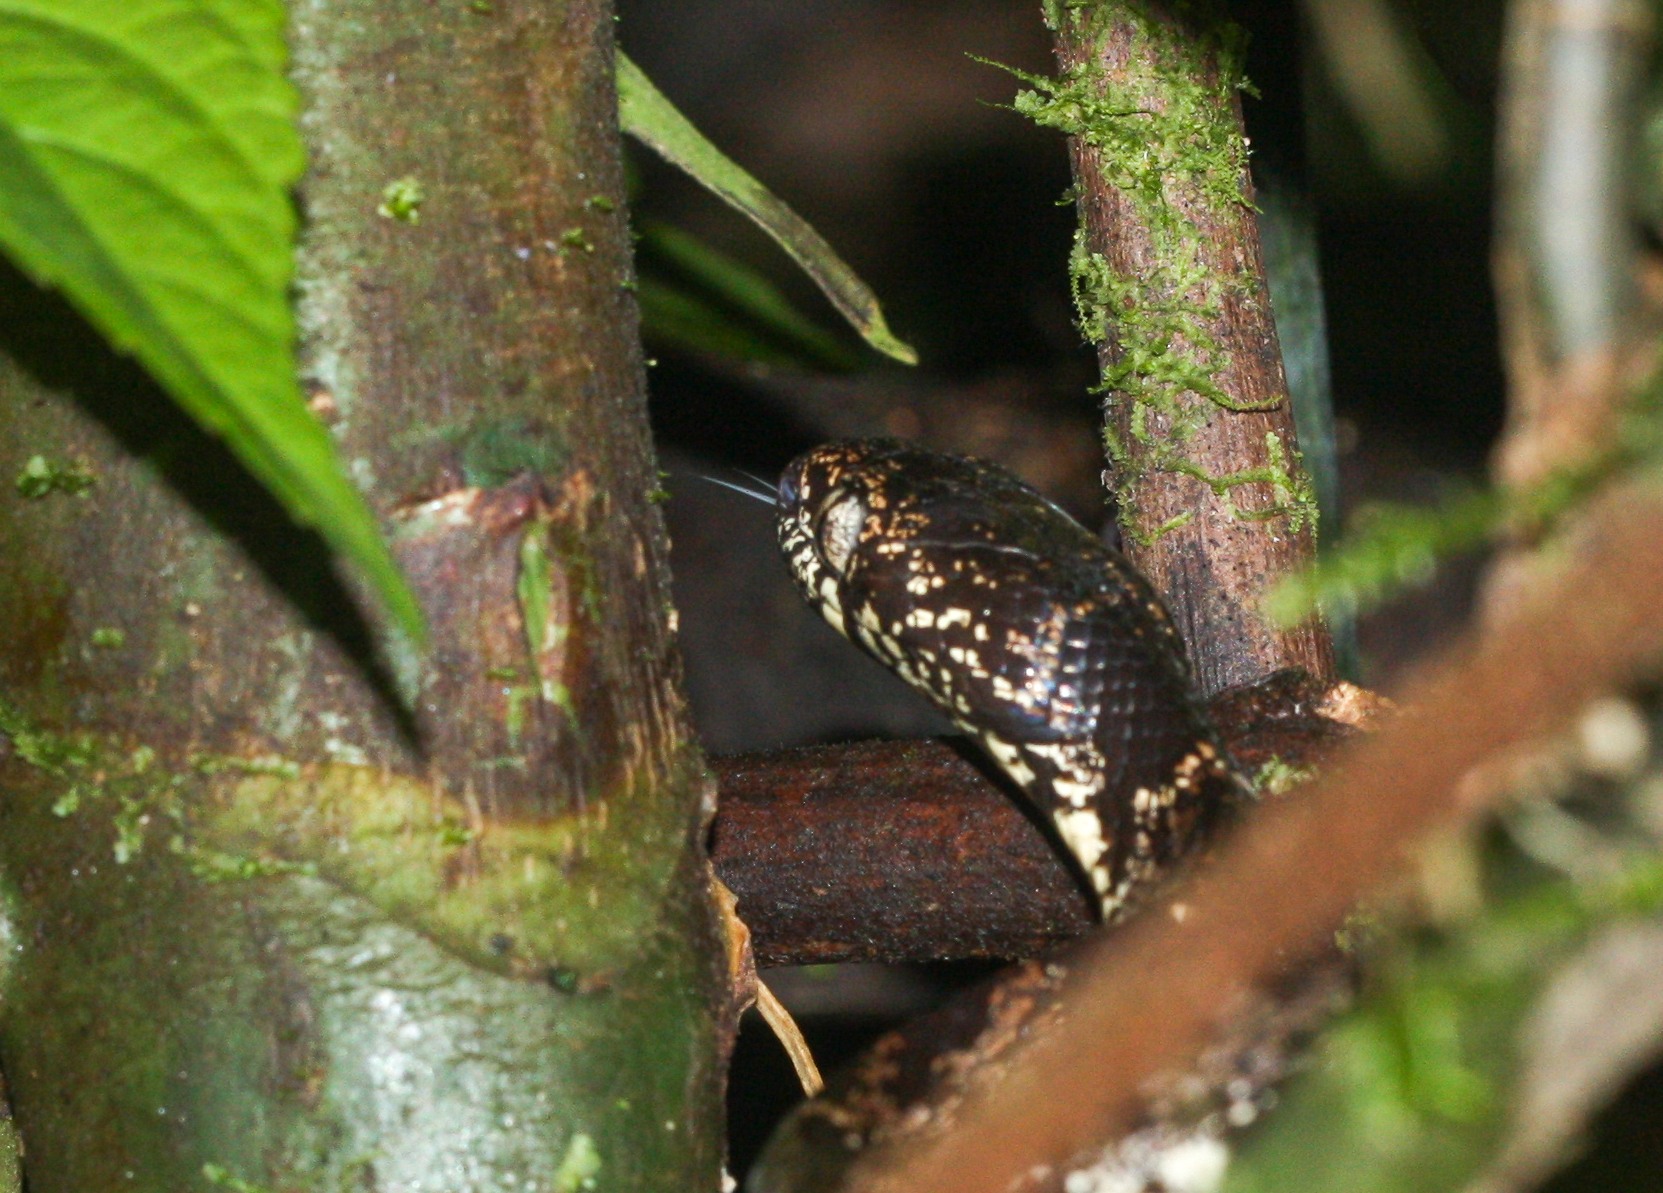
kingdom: Animalia
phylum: Chordata
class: Squamata
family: Colubridae
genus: Sibon
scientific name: Sibon nebulatus
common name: Cloudy snail-eating snake
